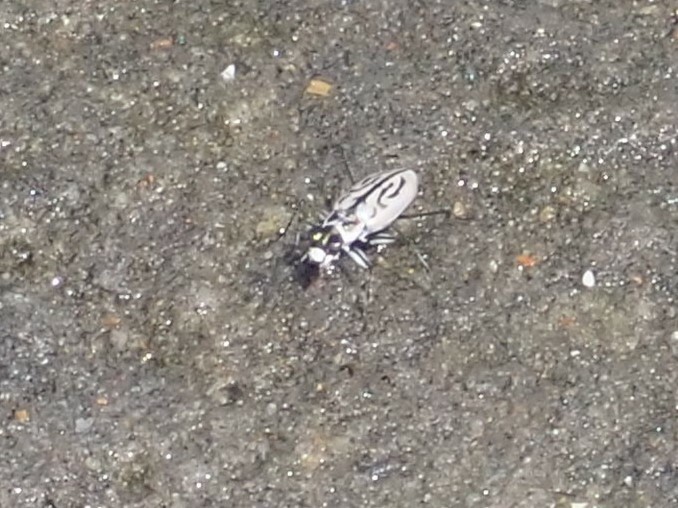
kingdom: Animalia
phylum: Arthropoda
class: Insecta
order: Coleoptera
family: Carabidae
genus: Habroscelimorpha
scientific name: Habroscelimorpha dorsalis
